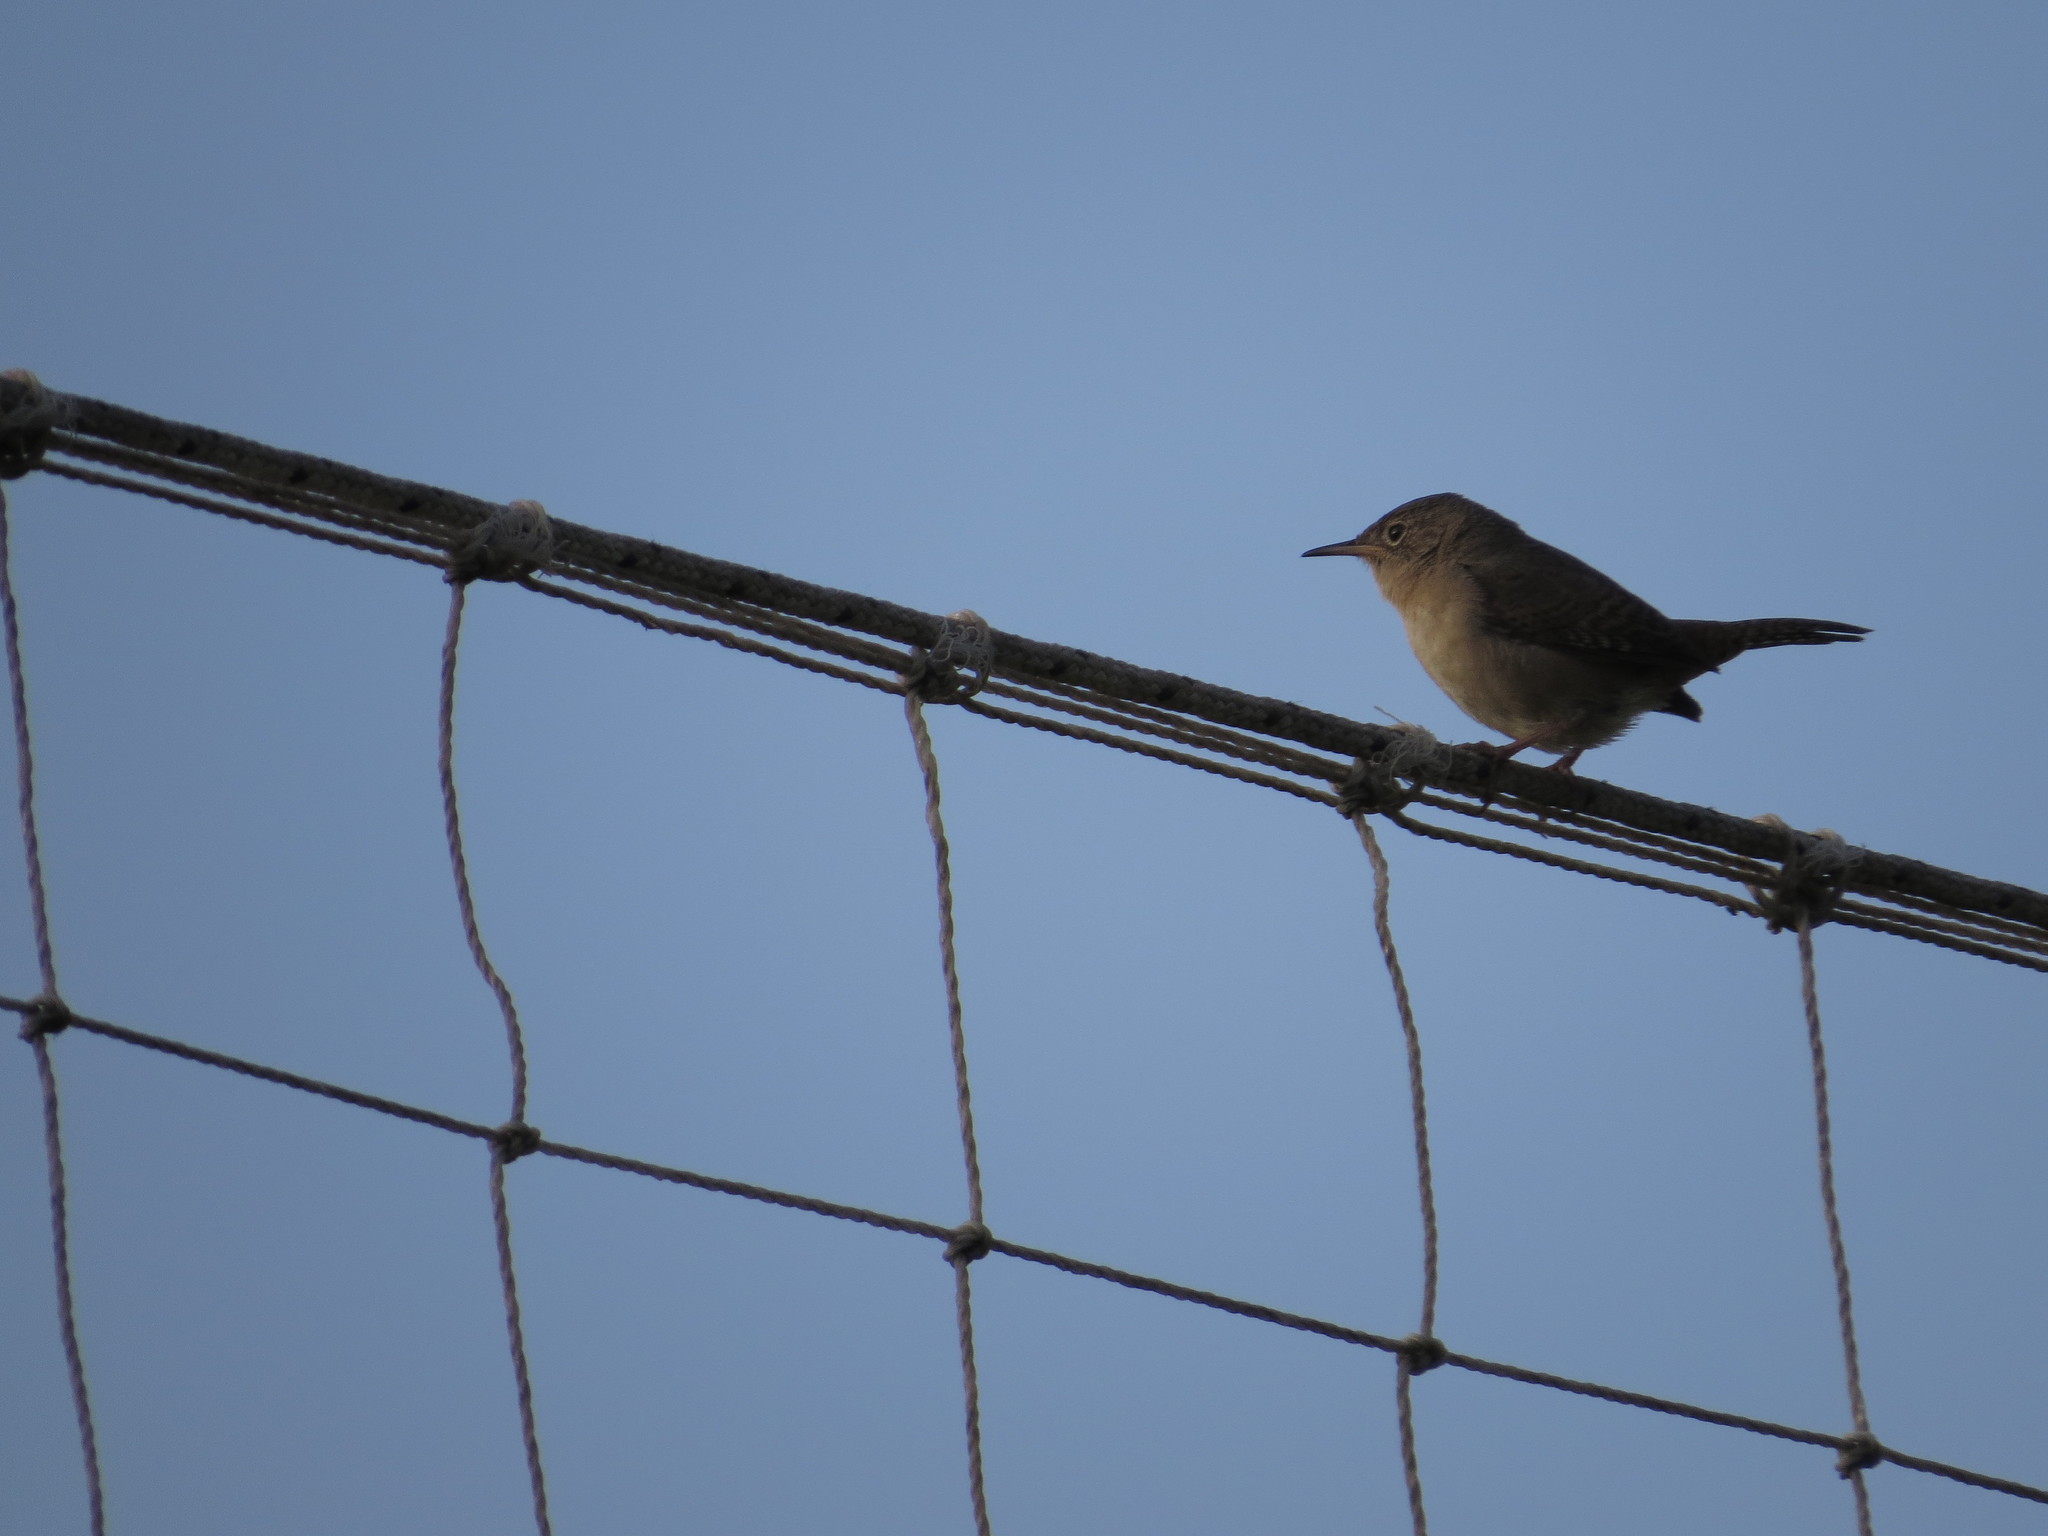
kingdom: Animalia
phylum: Chordata
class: Aves
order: Passeriformes
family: Troglodytidae
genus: Troglodytes
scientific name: Troglodytes aedon
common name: House wren
